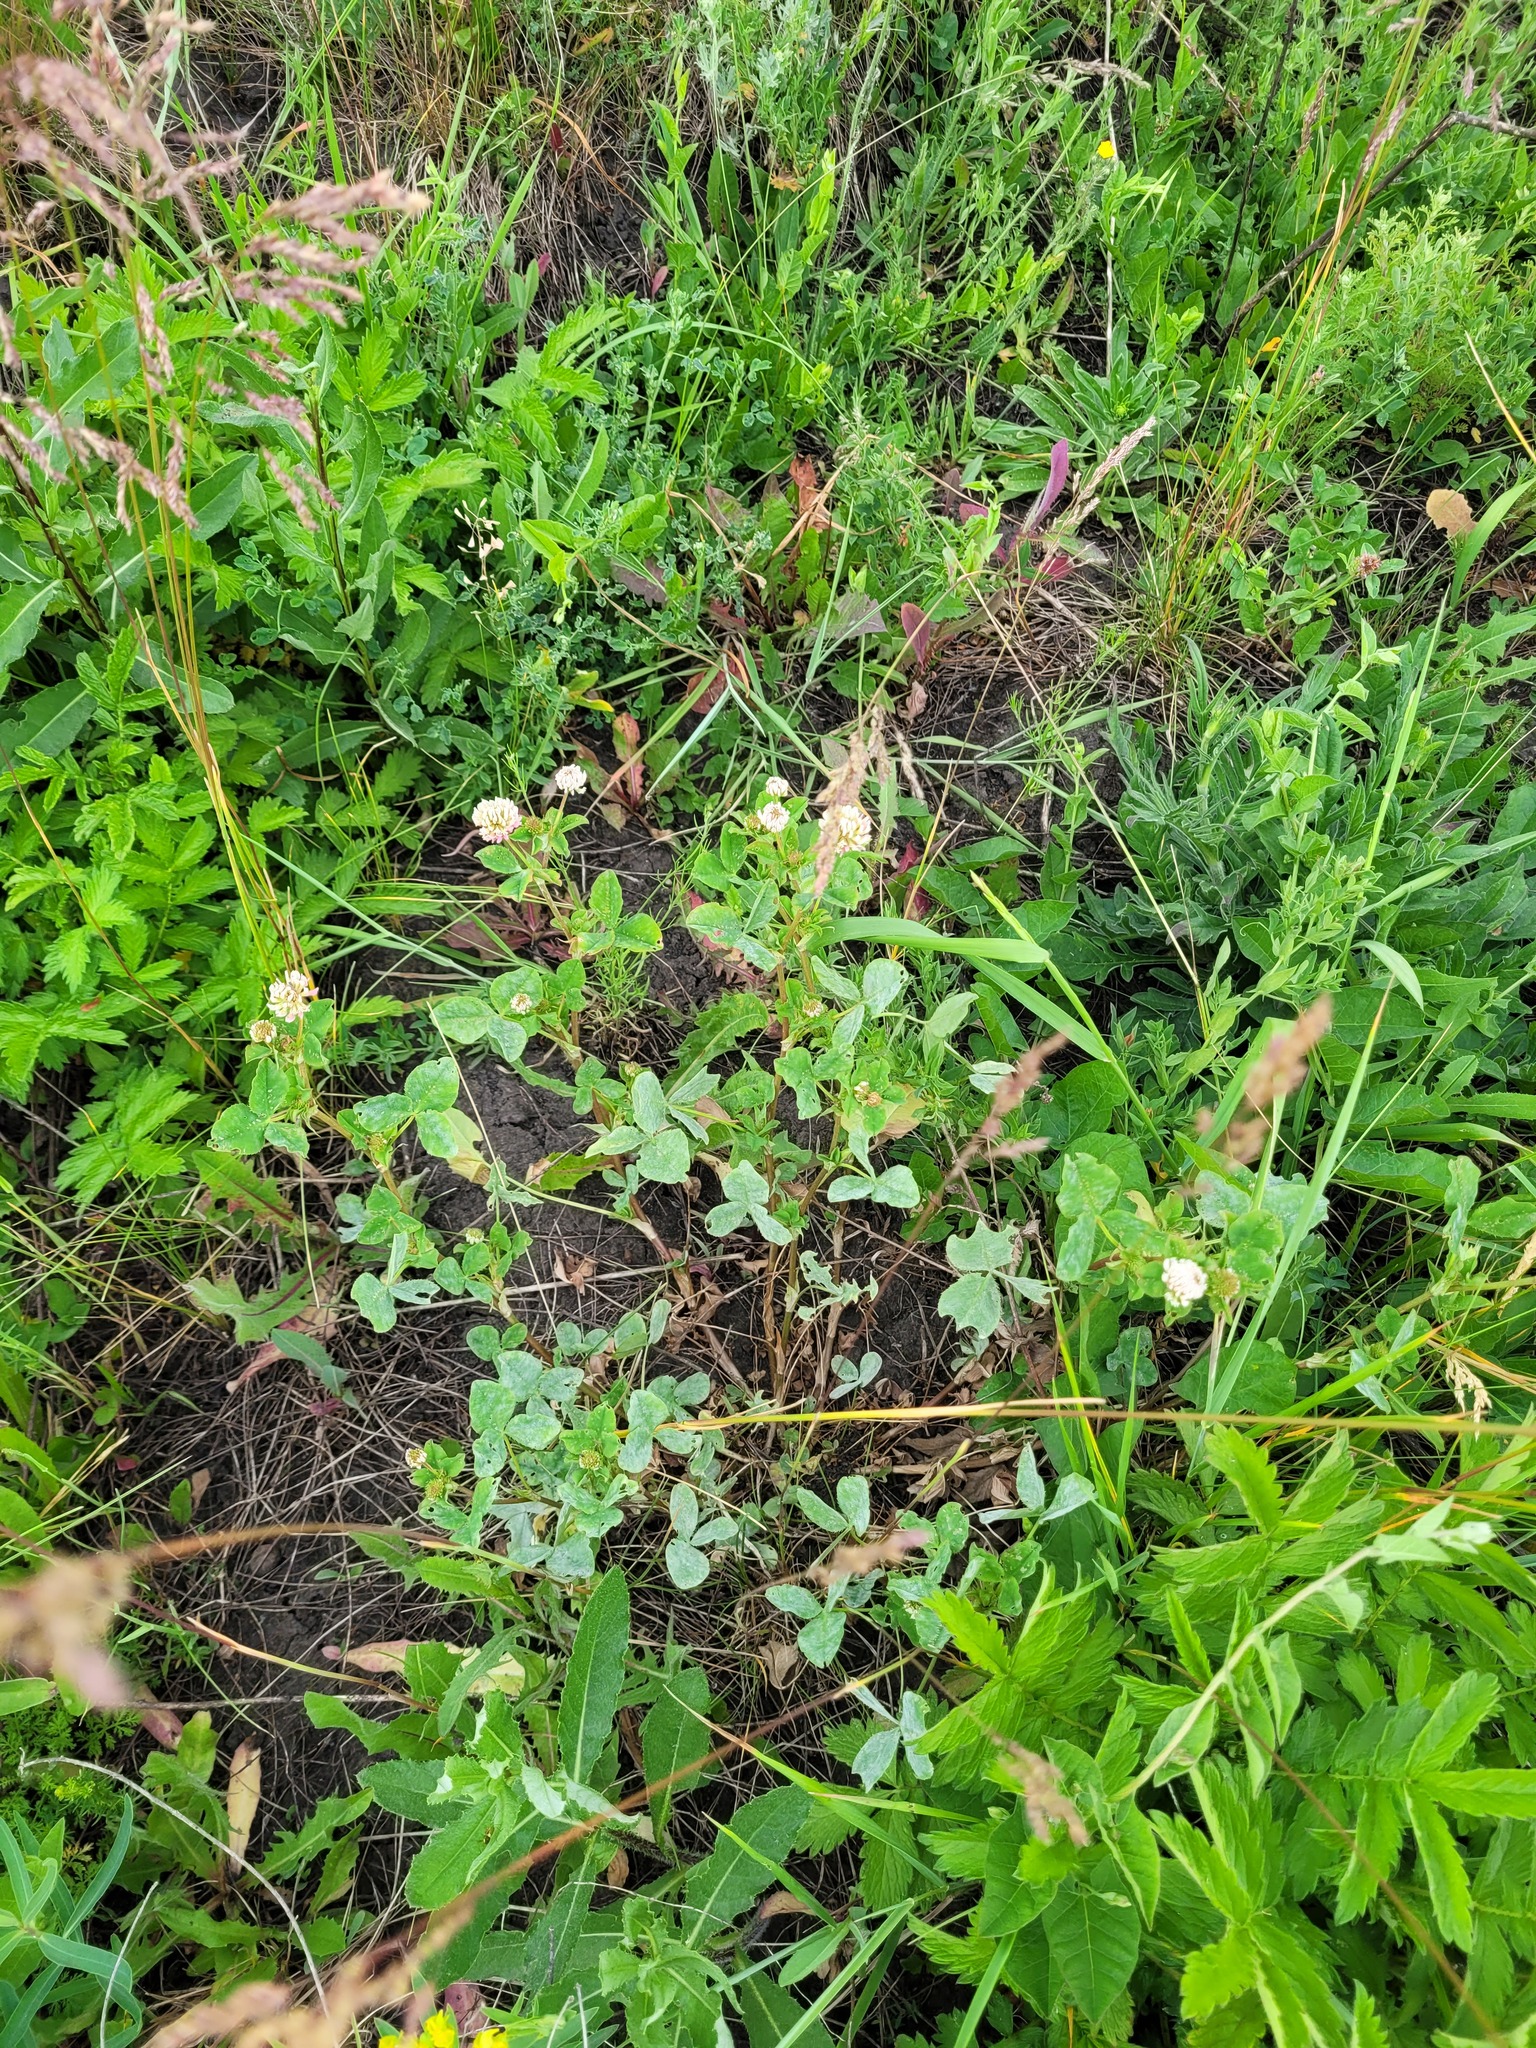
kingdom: Plantae
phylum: Tracheophyta
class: Magnoliopsida
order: Fabales
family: Fabaceae
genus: Trifolium
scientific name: Trifolium hybridum
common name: Alsike clover
